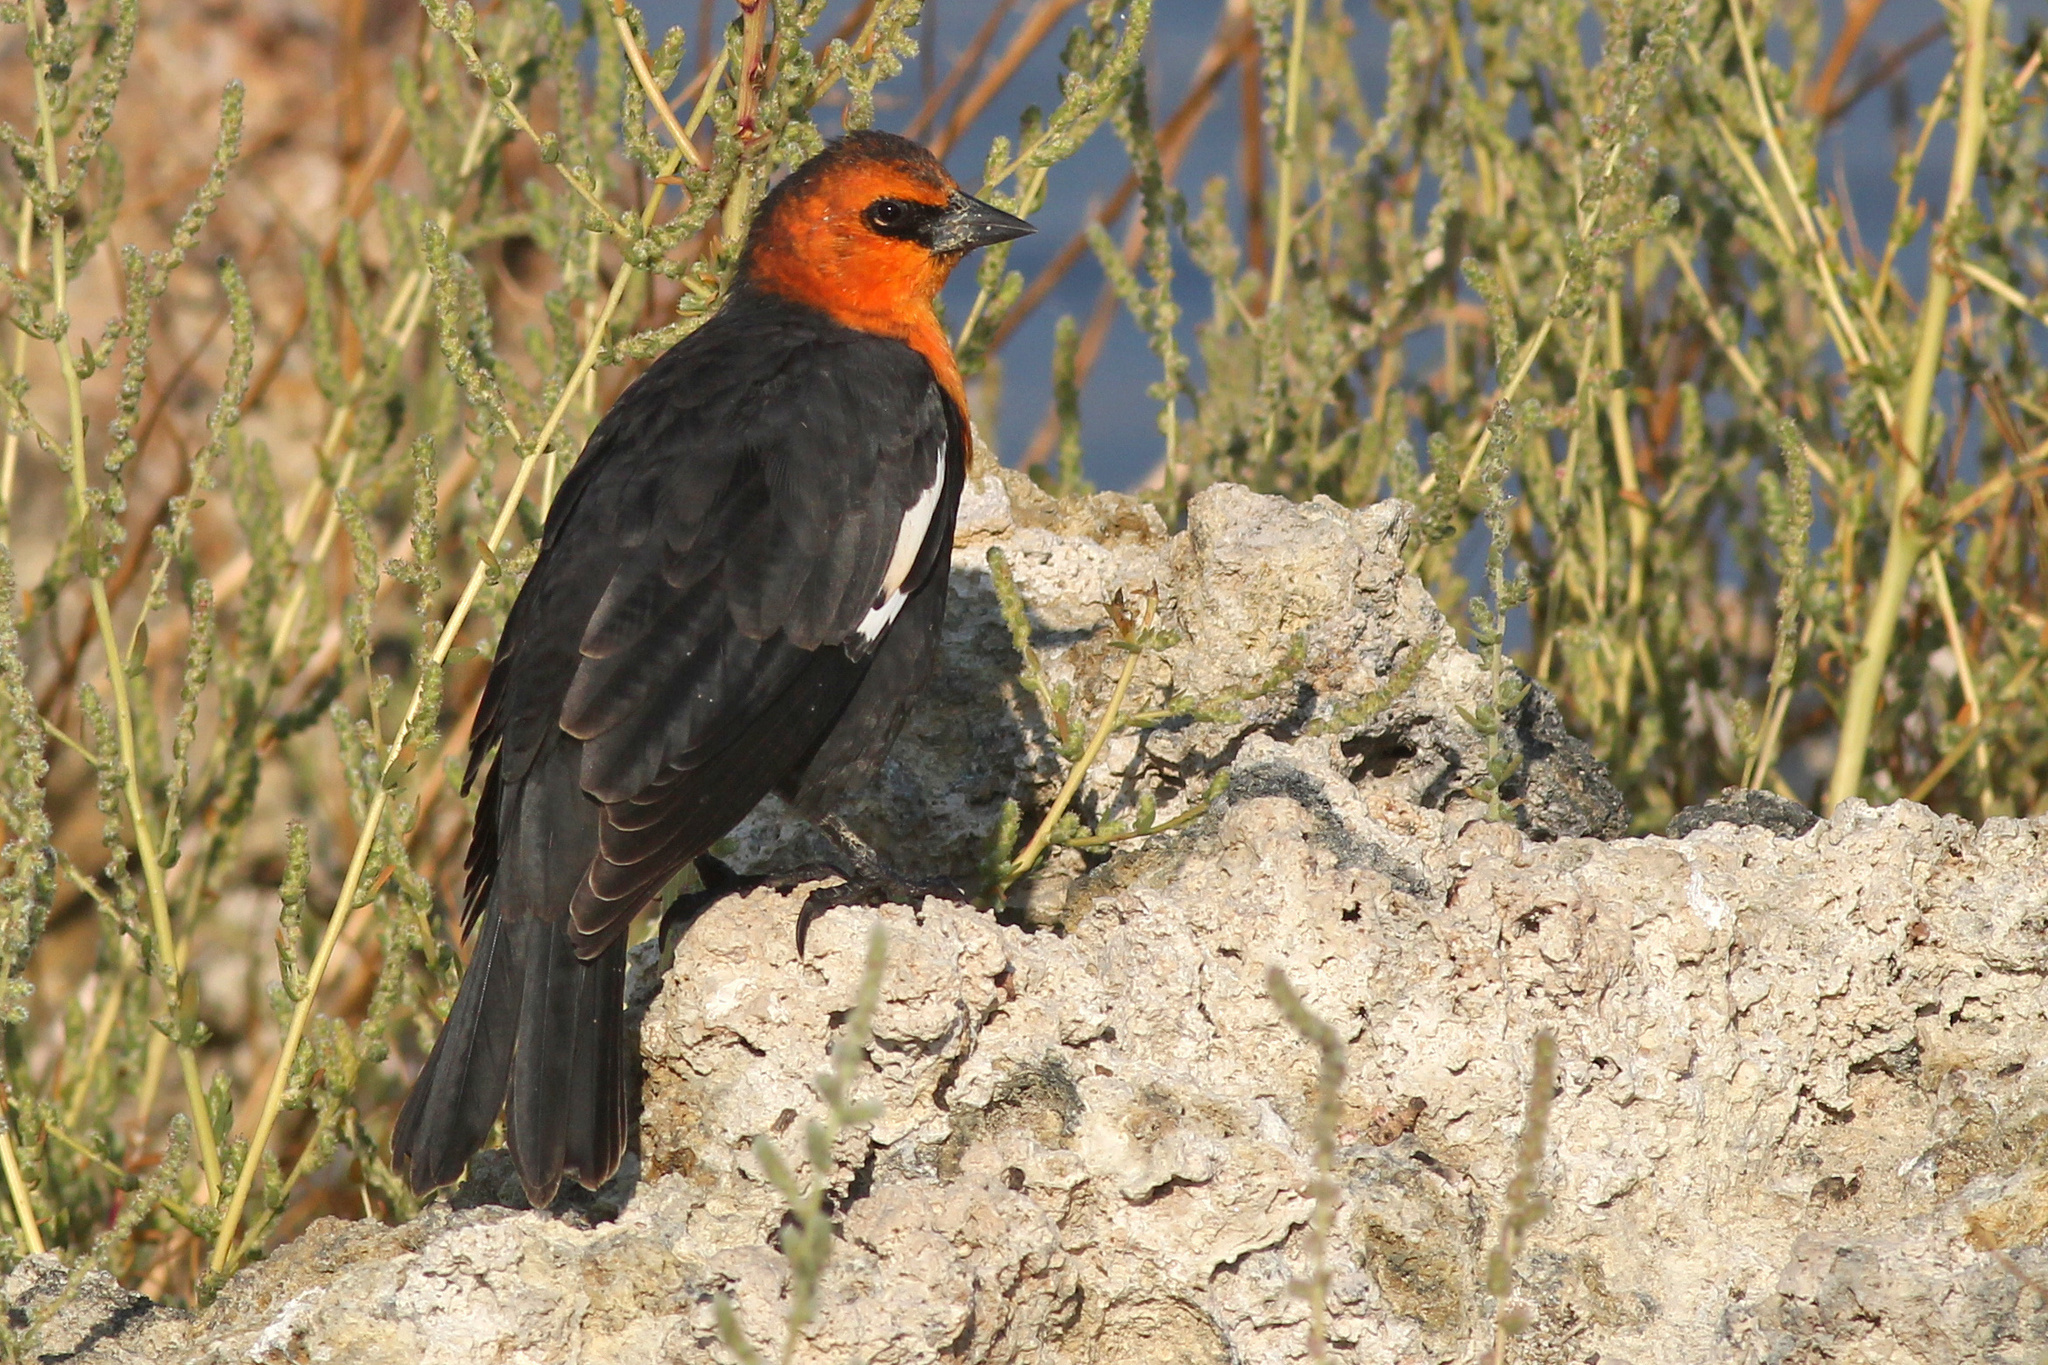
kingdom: Animalia
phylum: Chordata
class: Aves
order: Passeriformes
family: Icteridae
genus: Xanthocephalus
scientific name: Xanthocephalus xanthocephalus
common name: Yellow-headed blackbird
